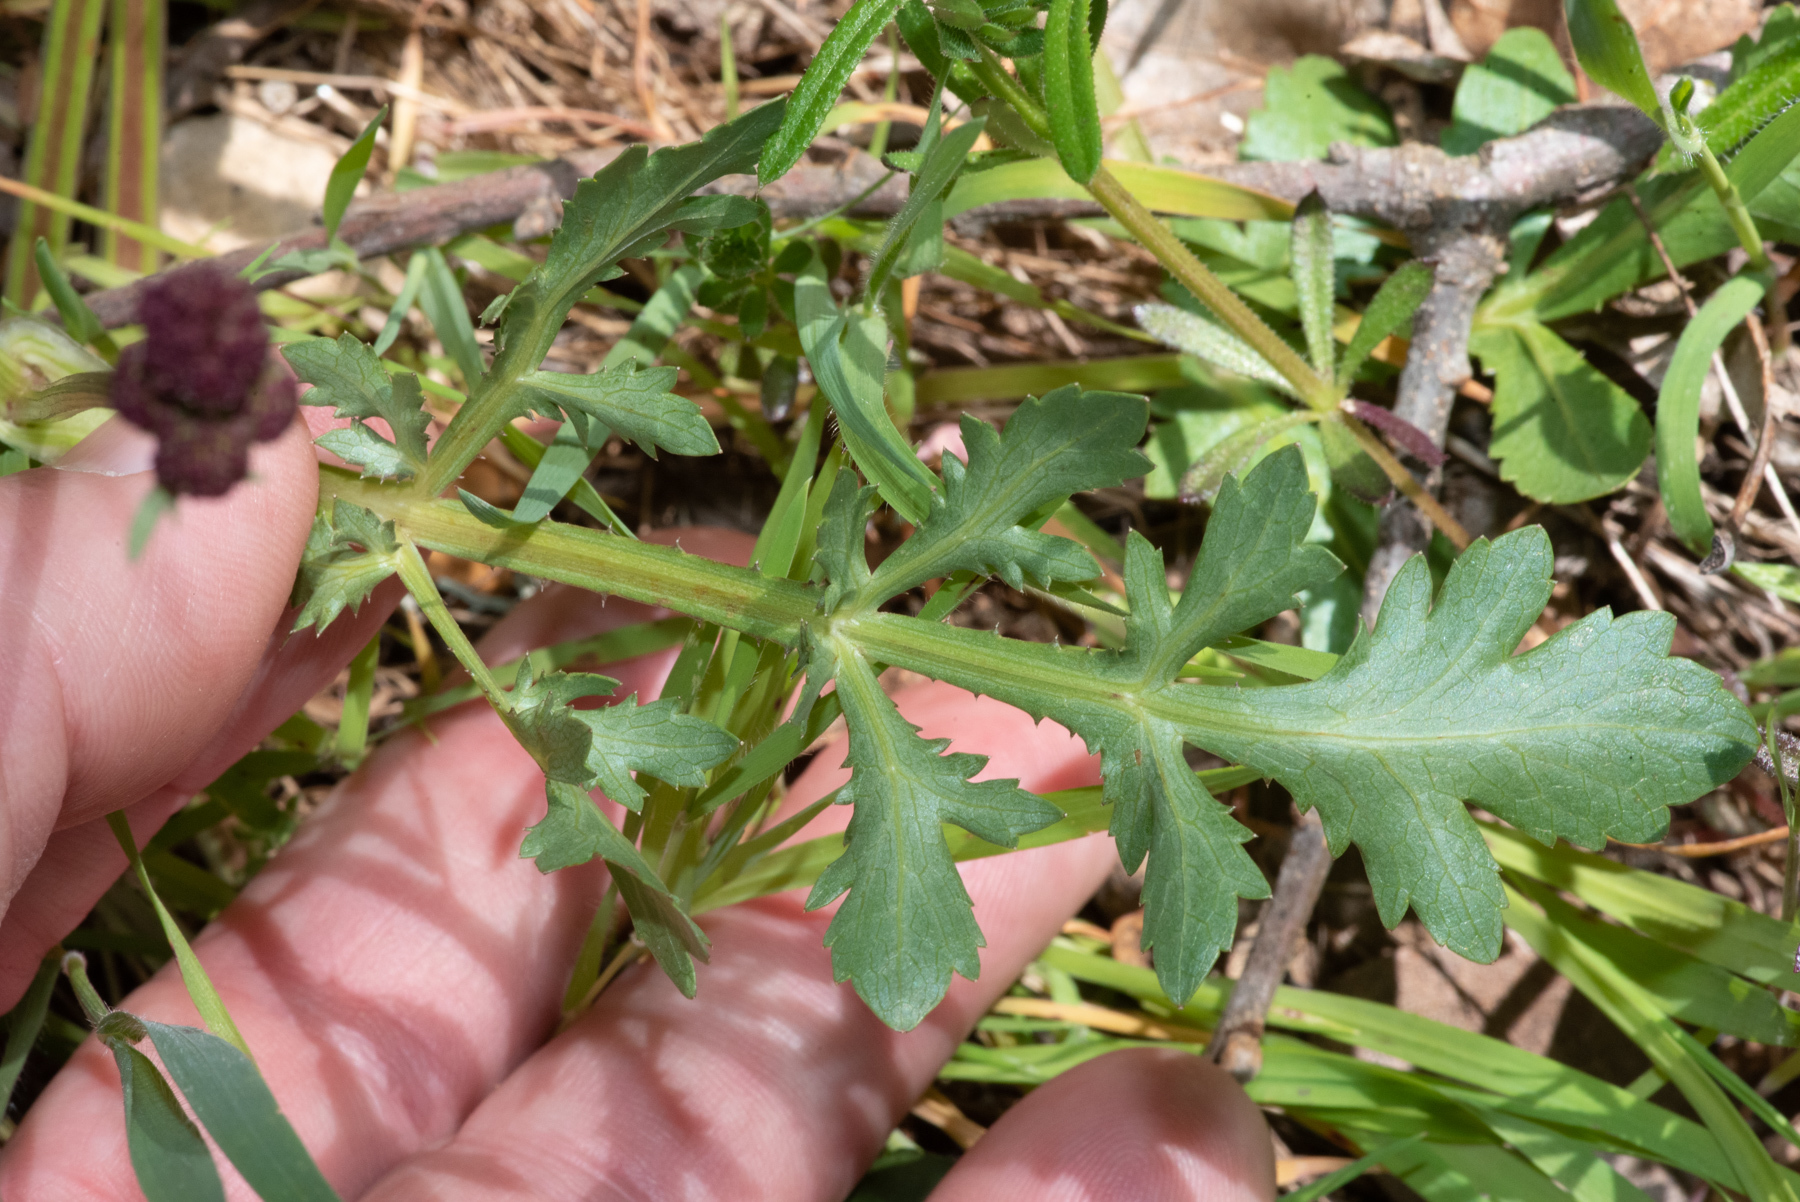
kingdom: Plantae
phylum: Tracheophyta
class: Magnoliopsida
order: Apiales
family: Apiaceae
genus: Sanicula
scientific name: Sanicula bipinnatifida
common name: Shoe-buttons
